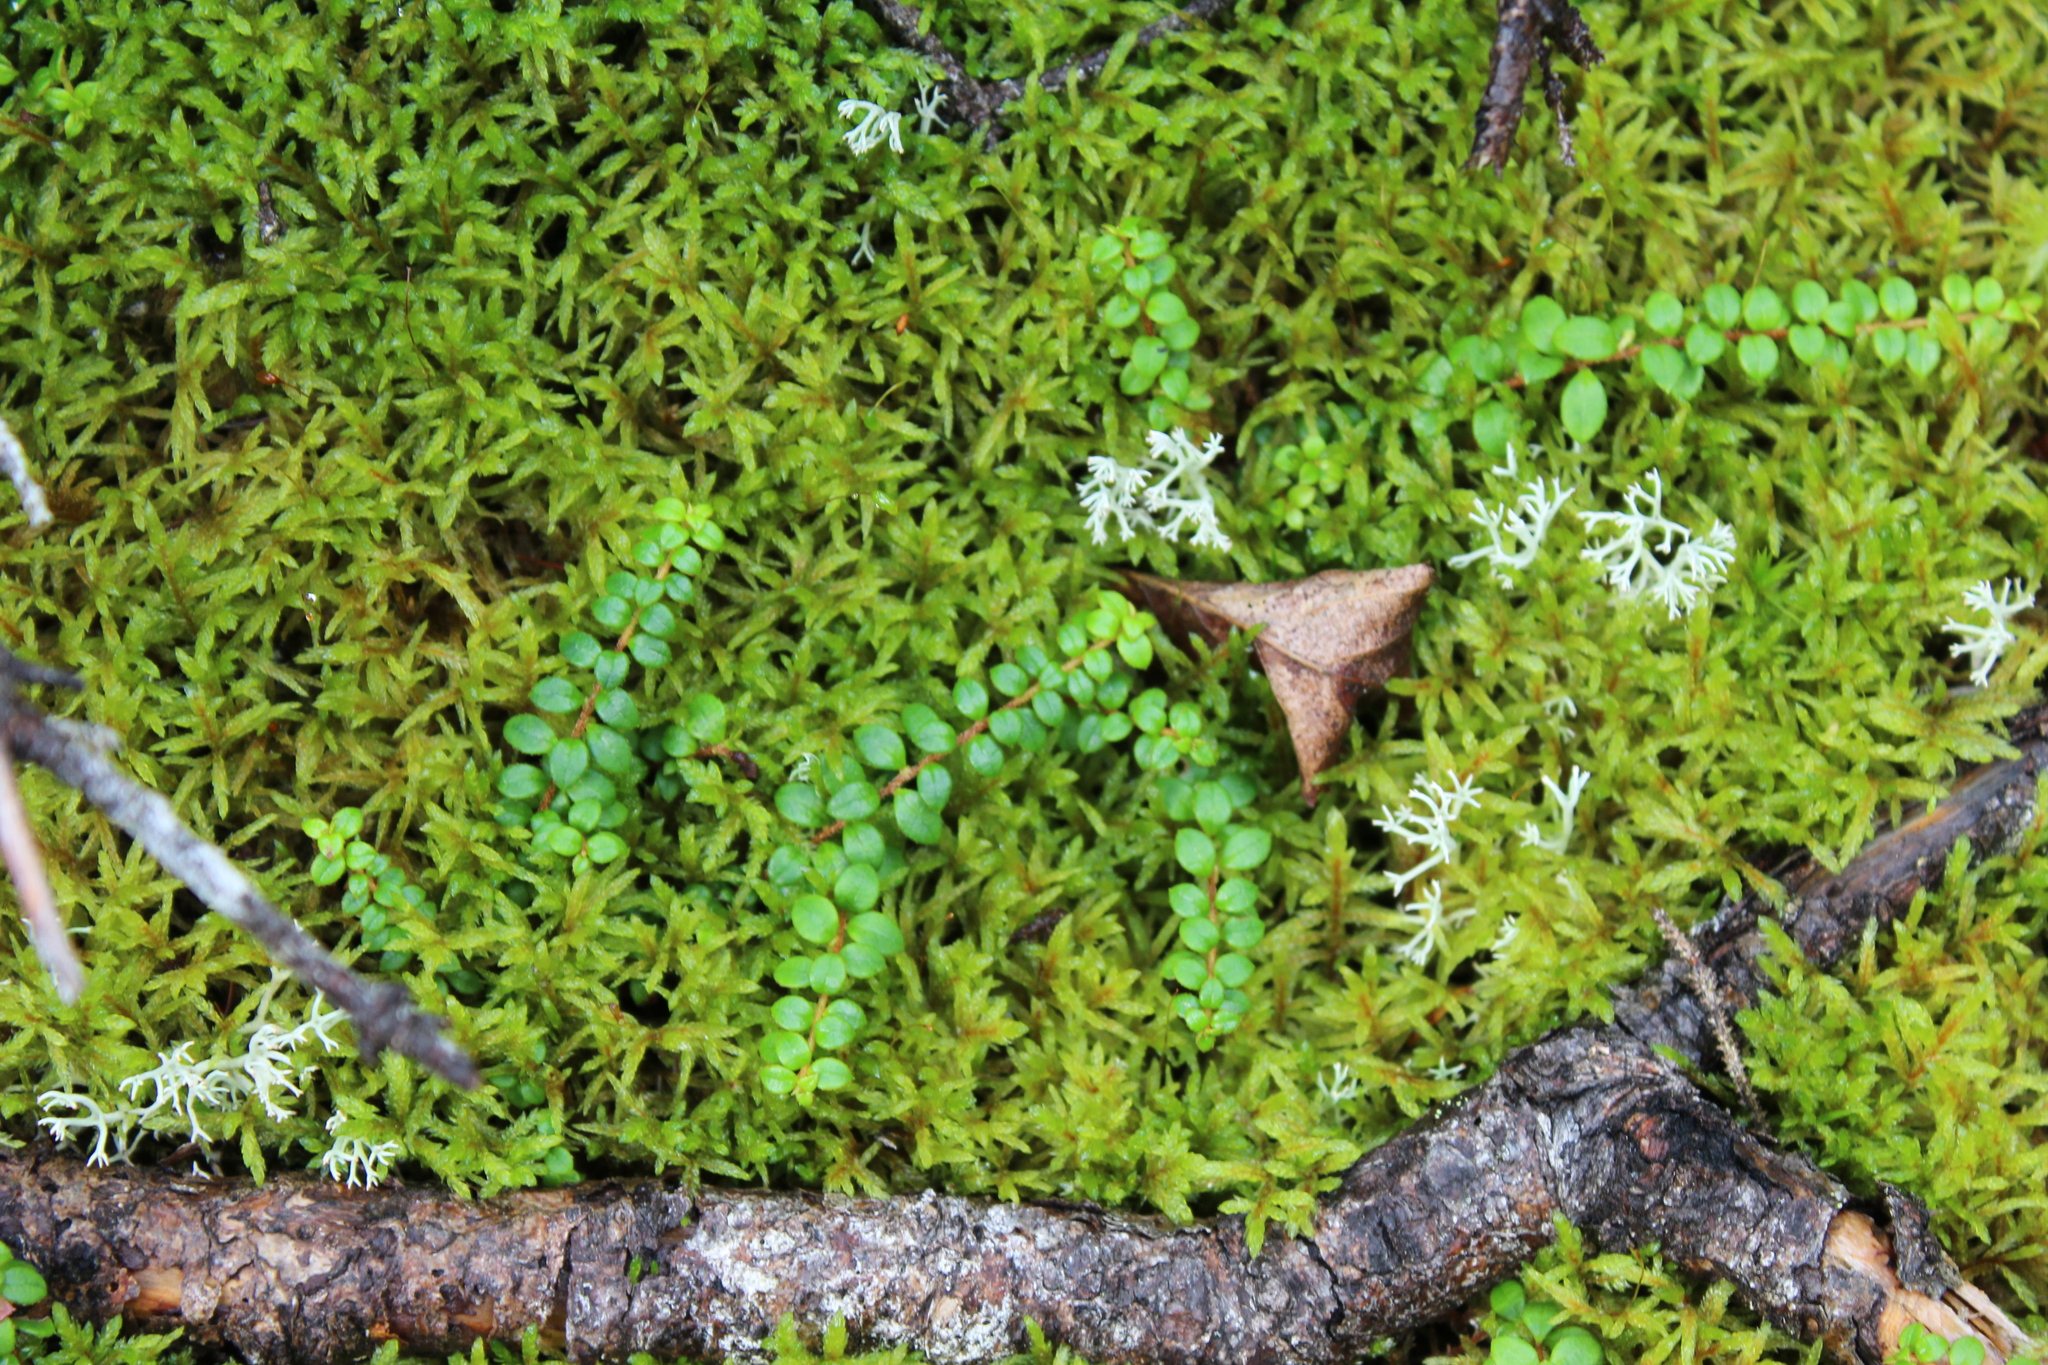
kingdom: Plantae
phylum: Tracheophyta
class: Magnoliopsida
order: Ericales
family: Ericaceae
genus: Gaultheria
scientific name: Gaultheria hispidula
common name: Cancer wintergreen
